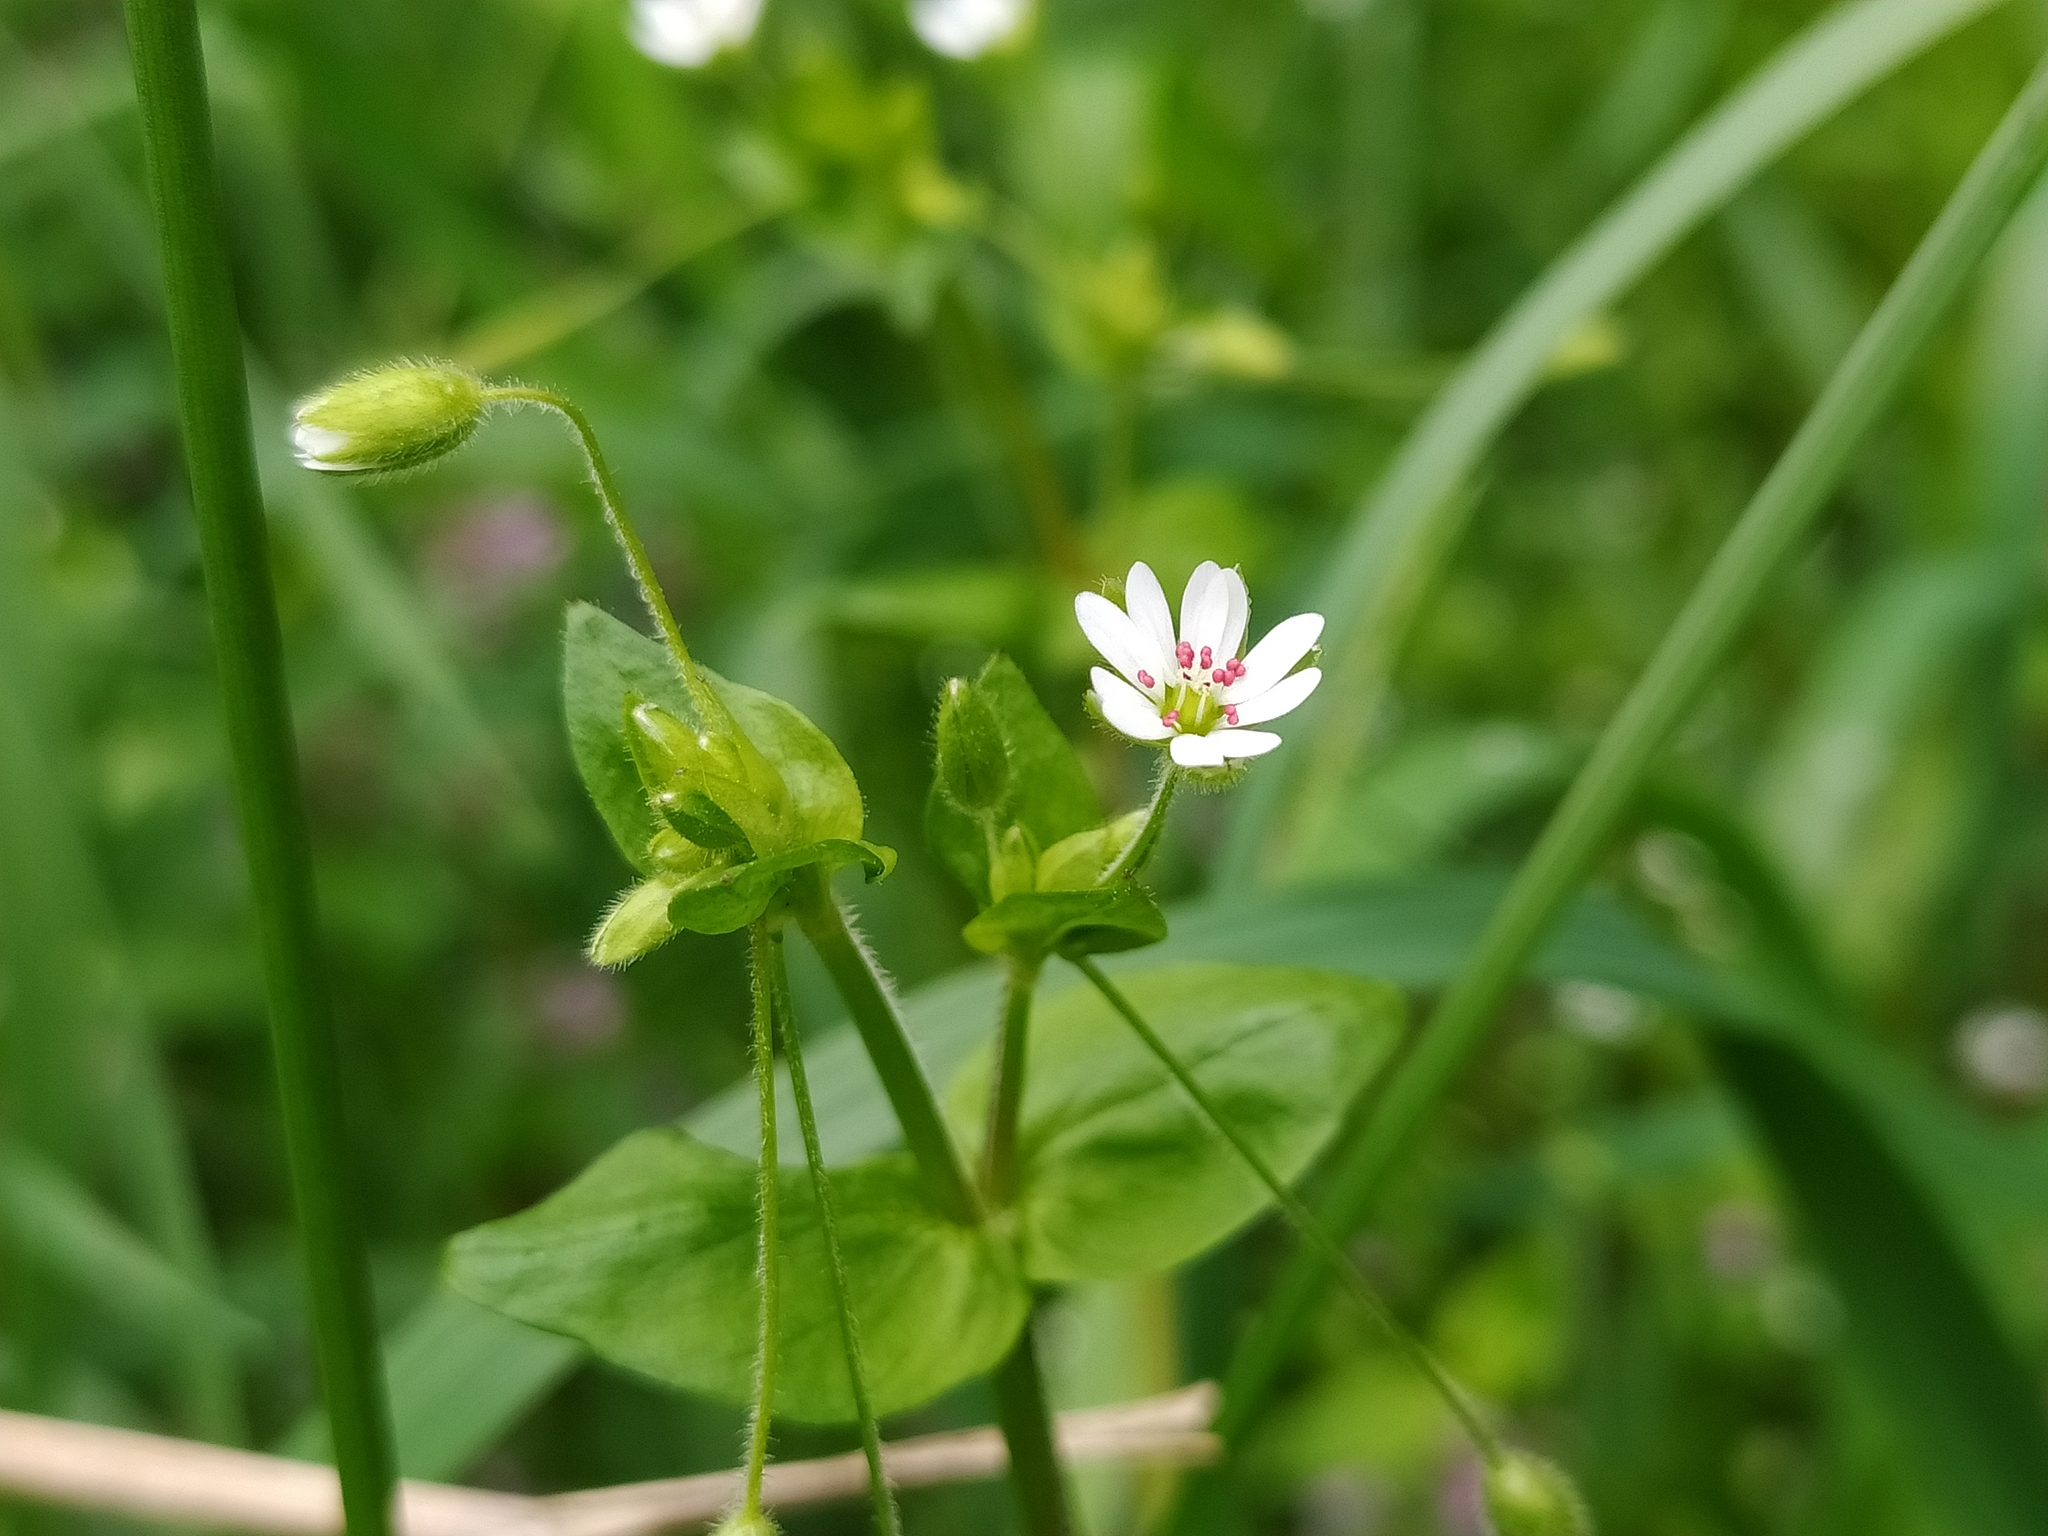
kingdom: Plantae
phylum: Tracheophyta
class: Magnoliopsida
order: Caryophyllales
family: Caryophyllaceae
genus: Stellaria
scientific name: Stellaria neglecta
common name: Greater chickweed
